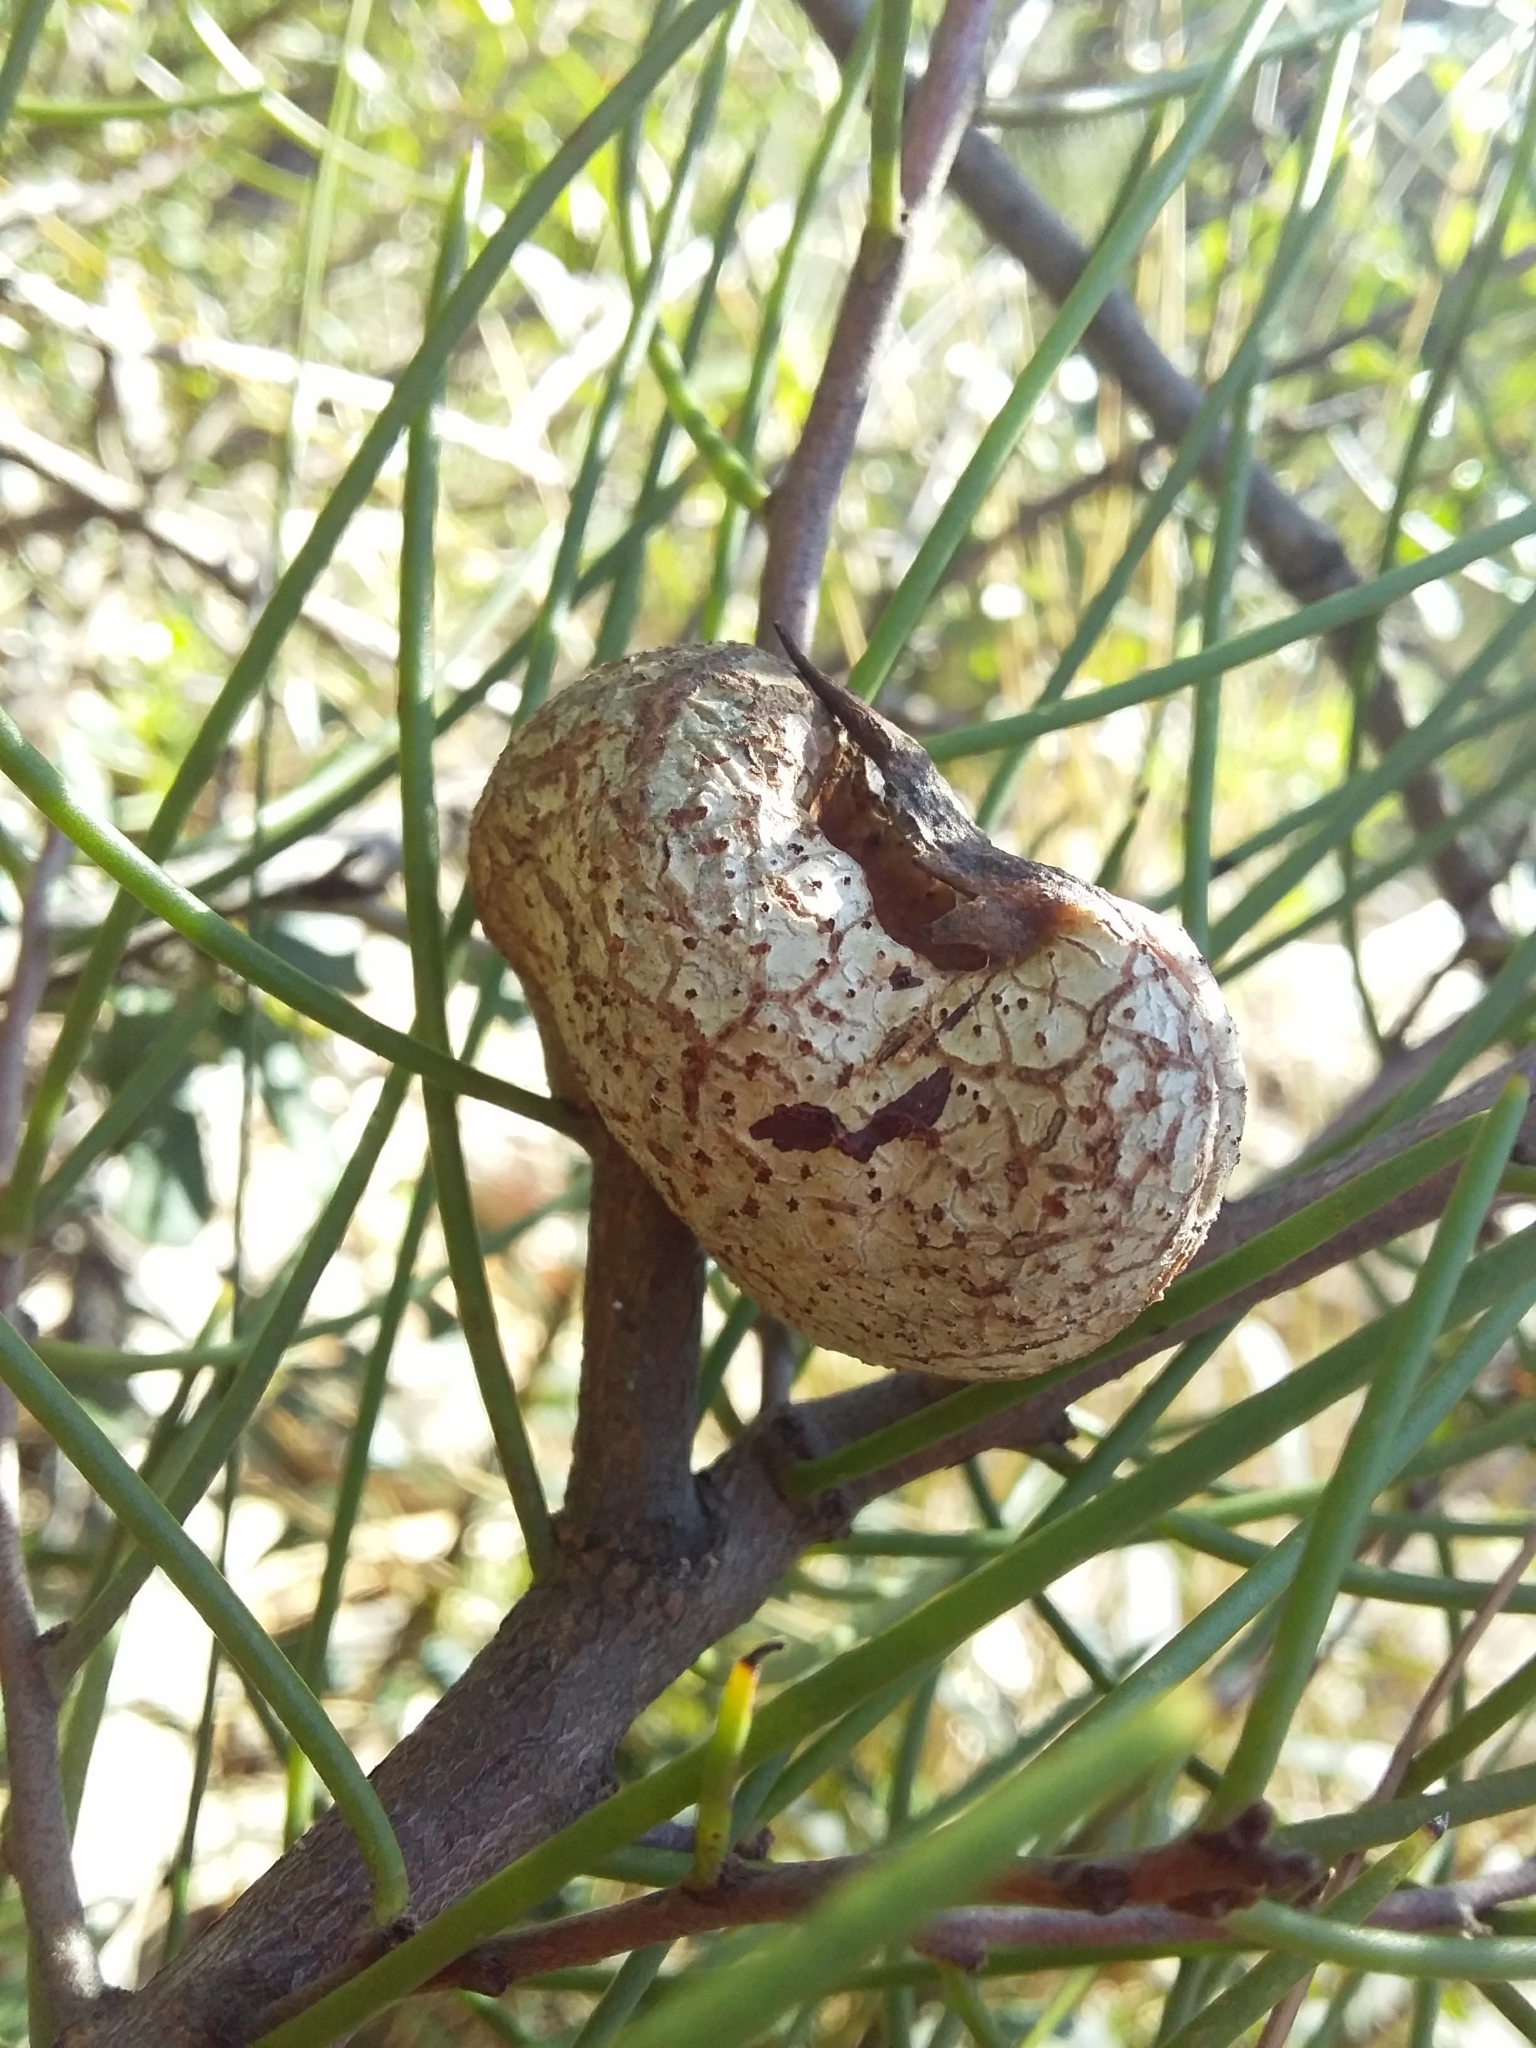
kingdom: Plantae
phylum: Tracheophyta
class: Magnoliopsida
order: Proteales
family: Proteaceae
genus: Hakea
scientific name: Hakea rostrata
